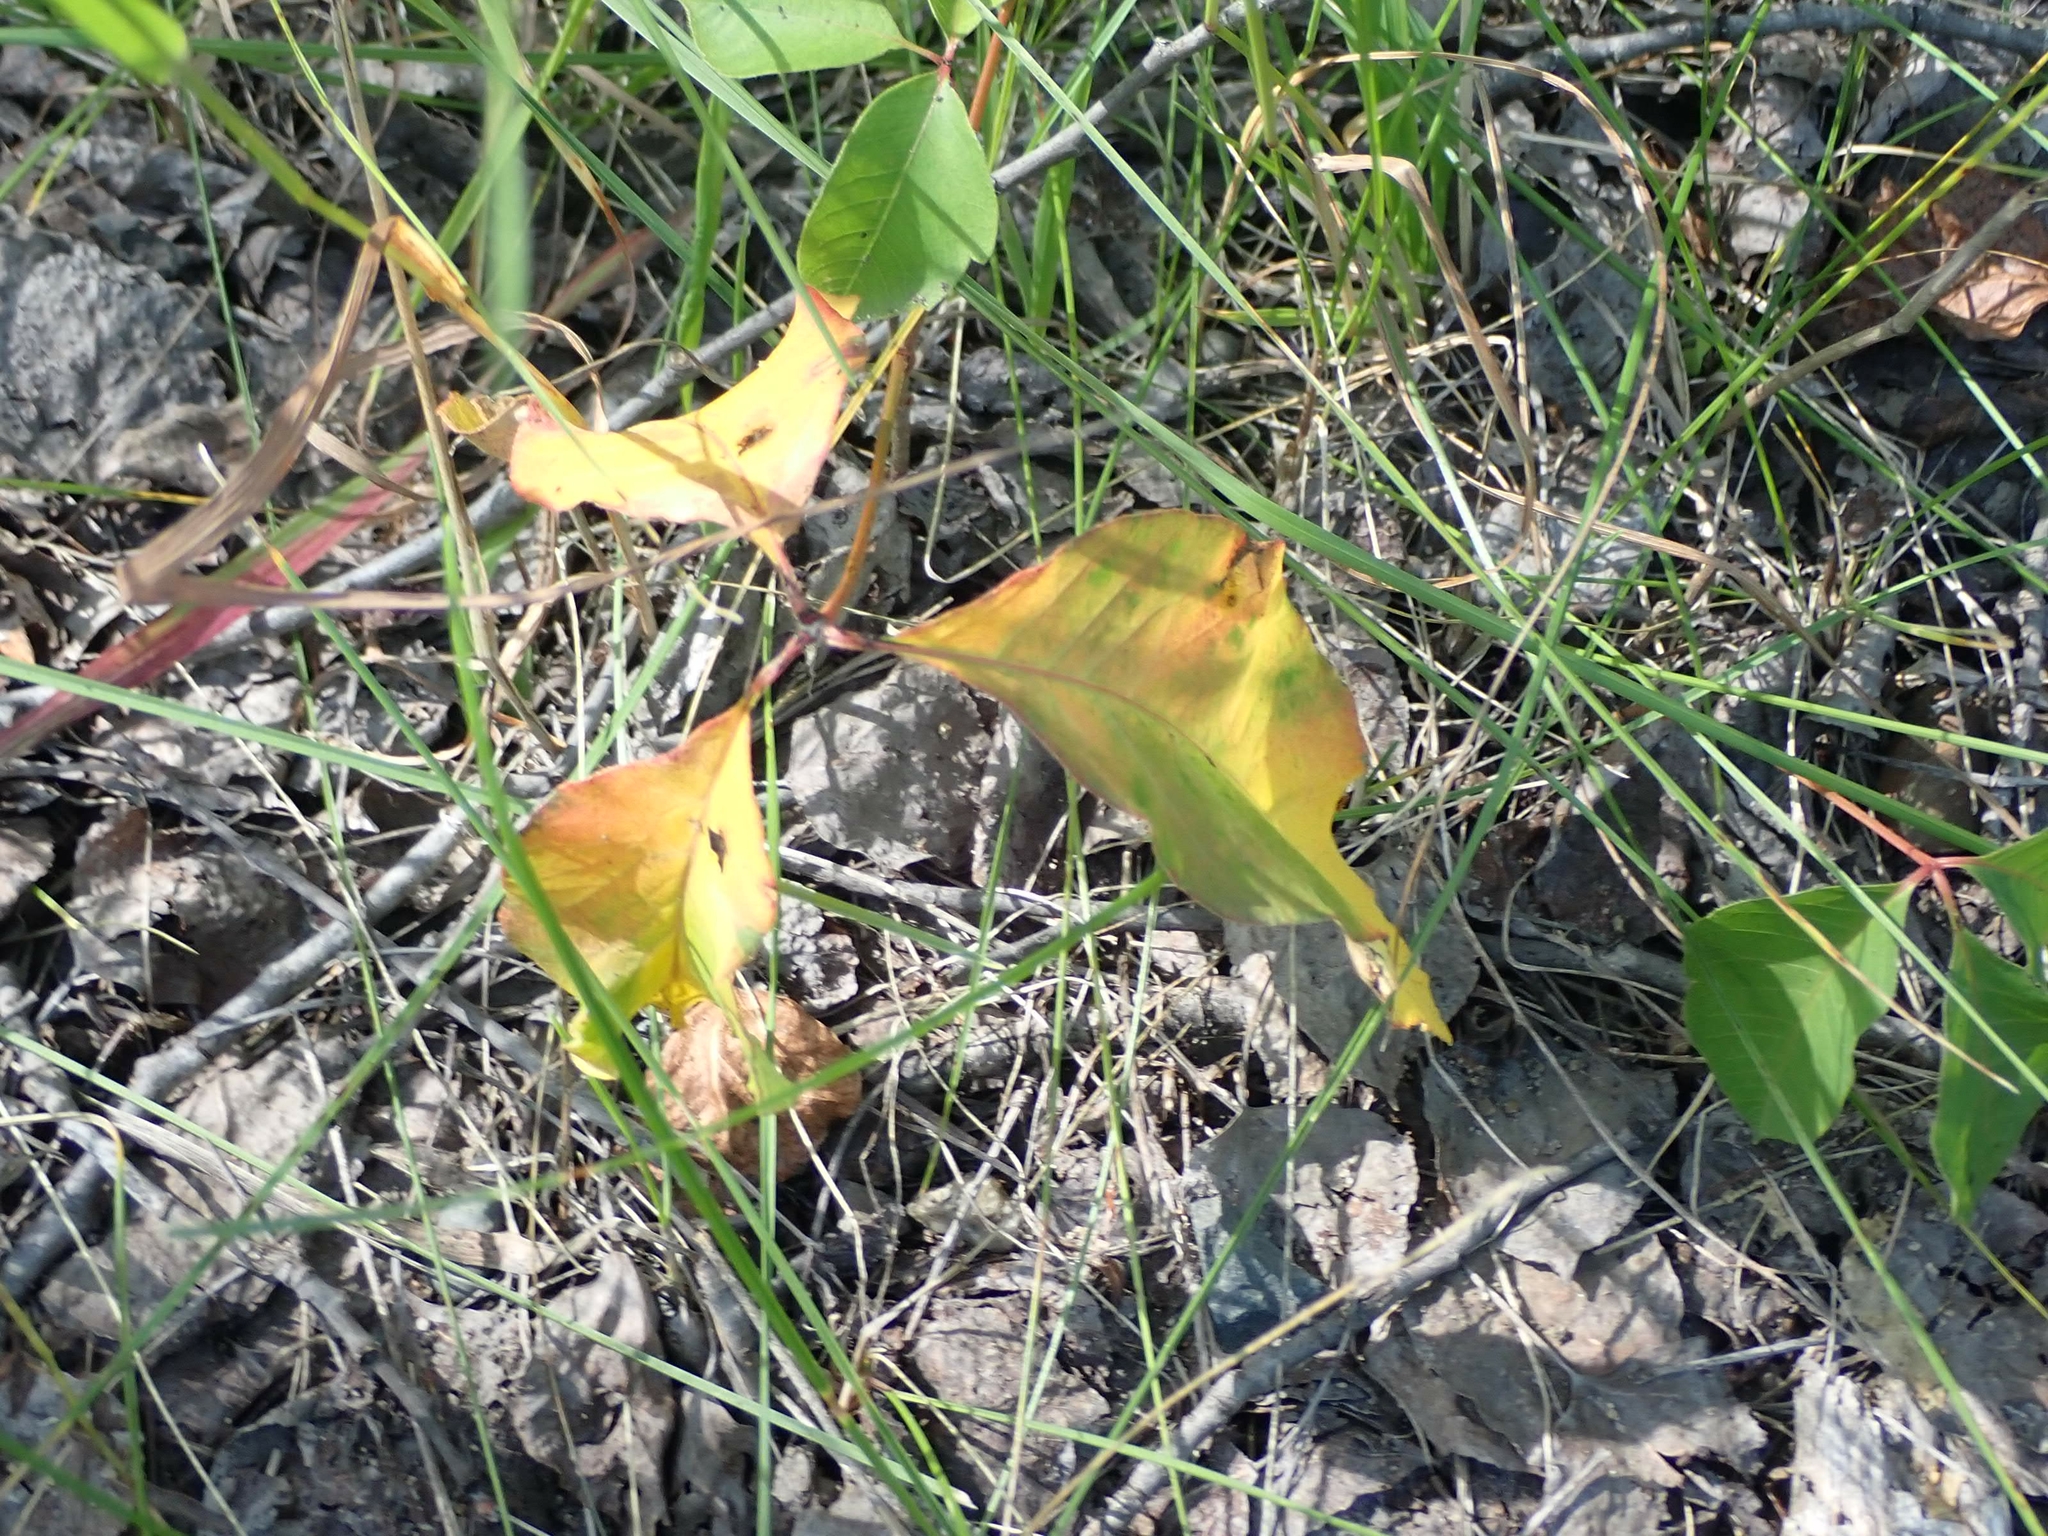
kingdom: Plantae
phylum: Tracheophyta
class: Magnoliopsida
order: Sapindales
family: Anacardiaceae
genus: Toxicodendron
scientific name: Toxicodendron rydbergii
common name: Rydberg's poison-ivy
